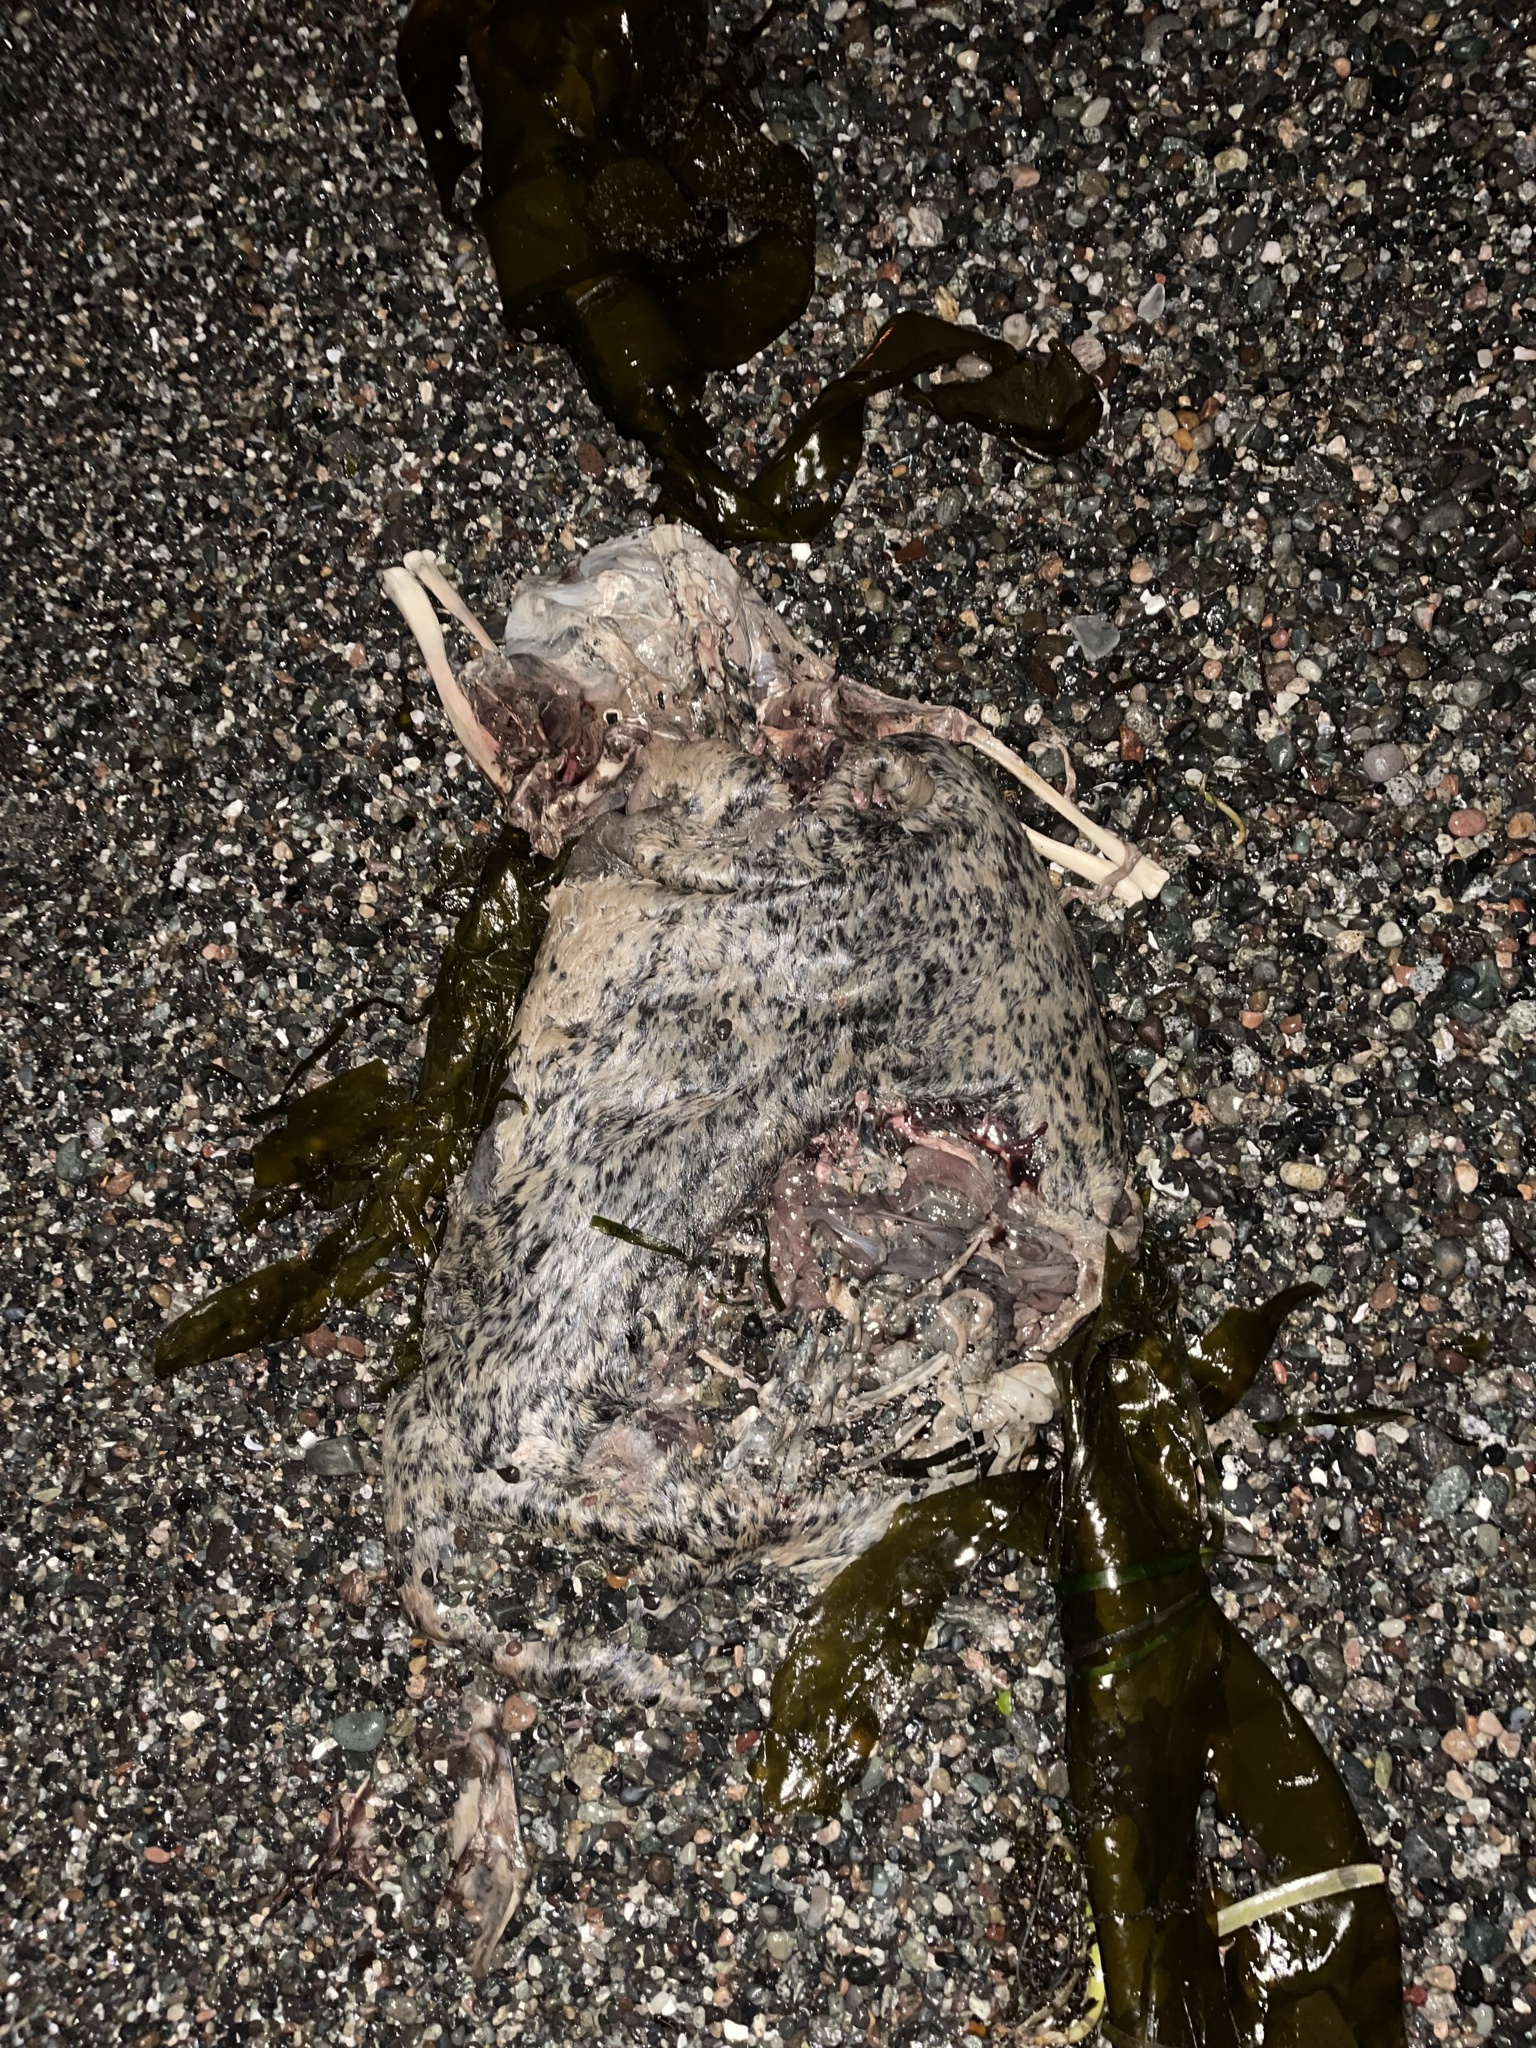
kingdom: Animalia
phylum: Chordata
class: Mammalia
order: Carnivora
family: Phocidae
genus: Phoca
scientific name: Phoca vitulina
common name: Harbor seal
